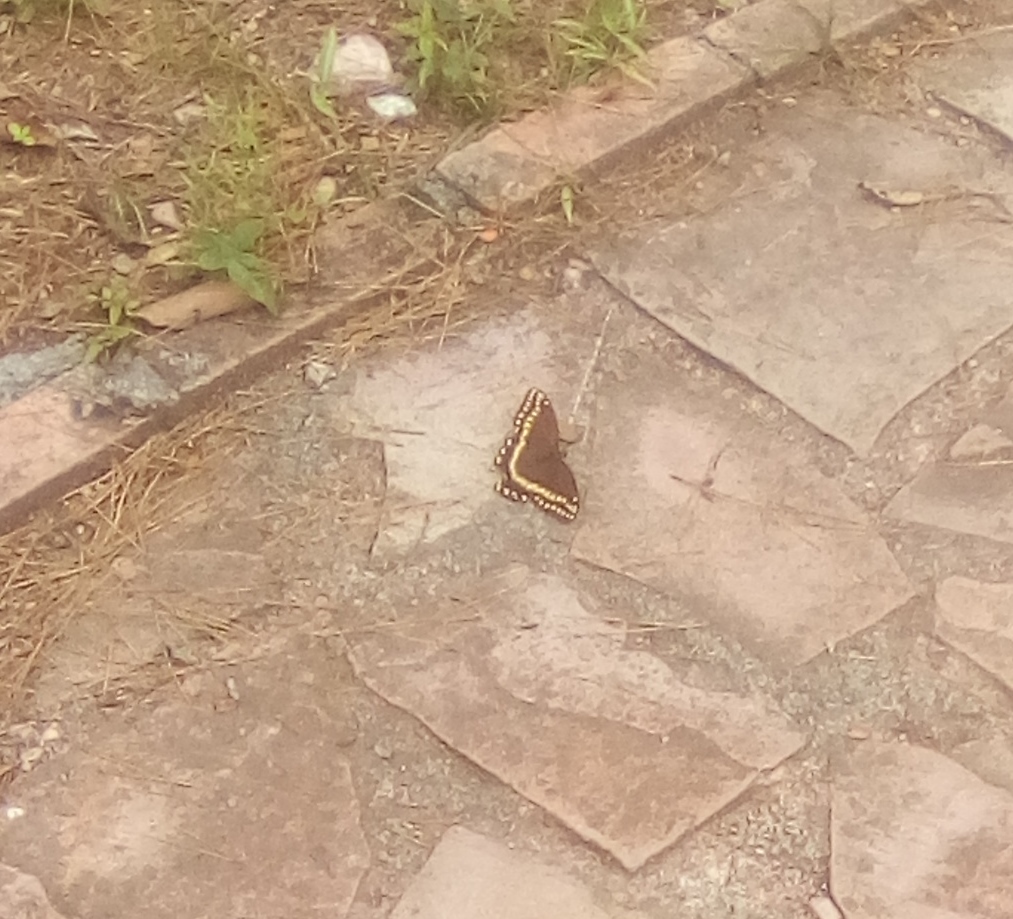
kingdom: Animalia
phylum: Arthropoda
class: Insecta
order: Lepidoptera
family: Papilionidae
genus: Papilio
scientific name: Papilio palamedes
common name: Palamedes swallowtail
